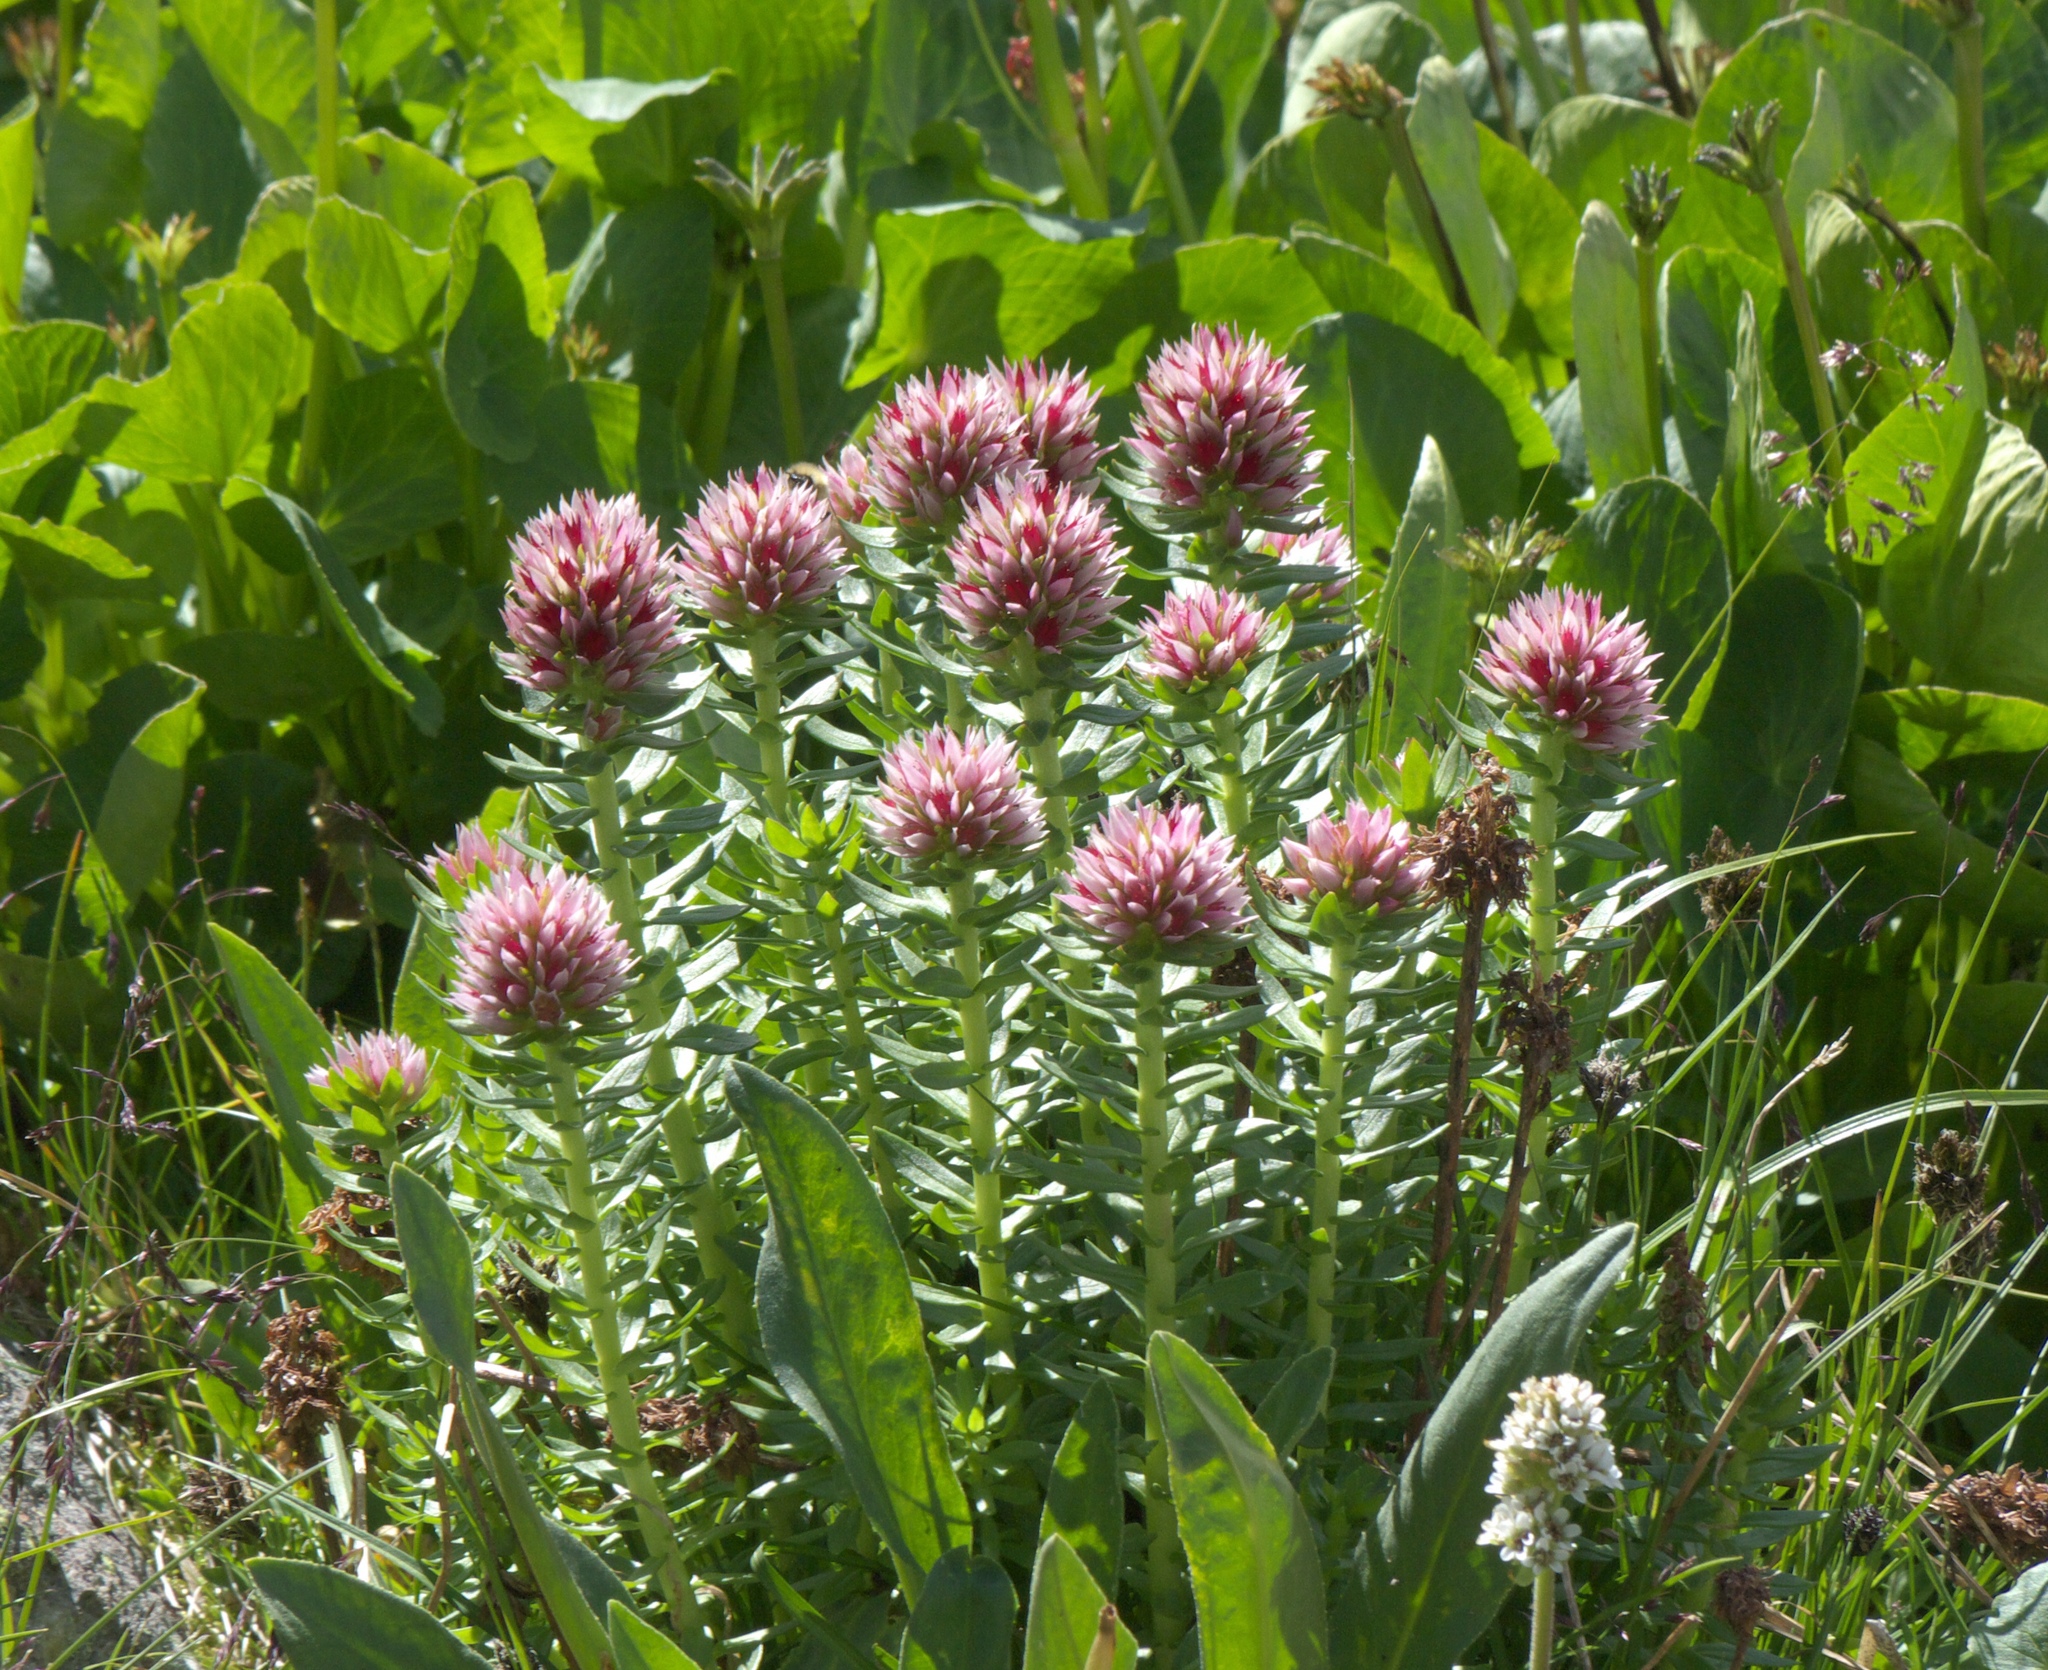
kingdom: Plantae
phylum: Tracheophyta
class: Magnoliopsida
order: Saxifragales
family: Crassulaceae
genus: Rhodiola
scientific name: Rhodiola rhodantha
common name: Red orpine
